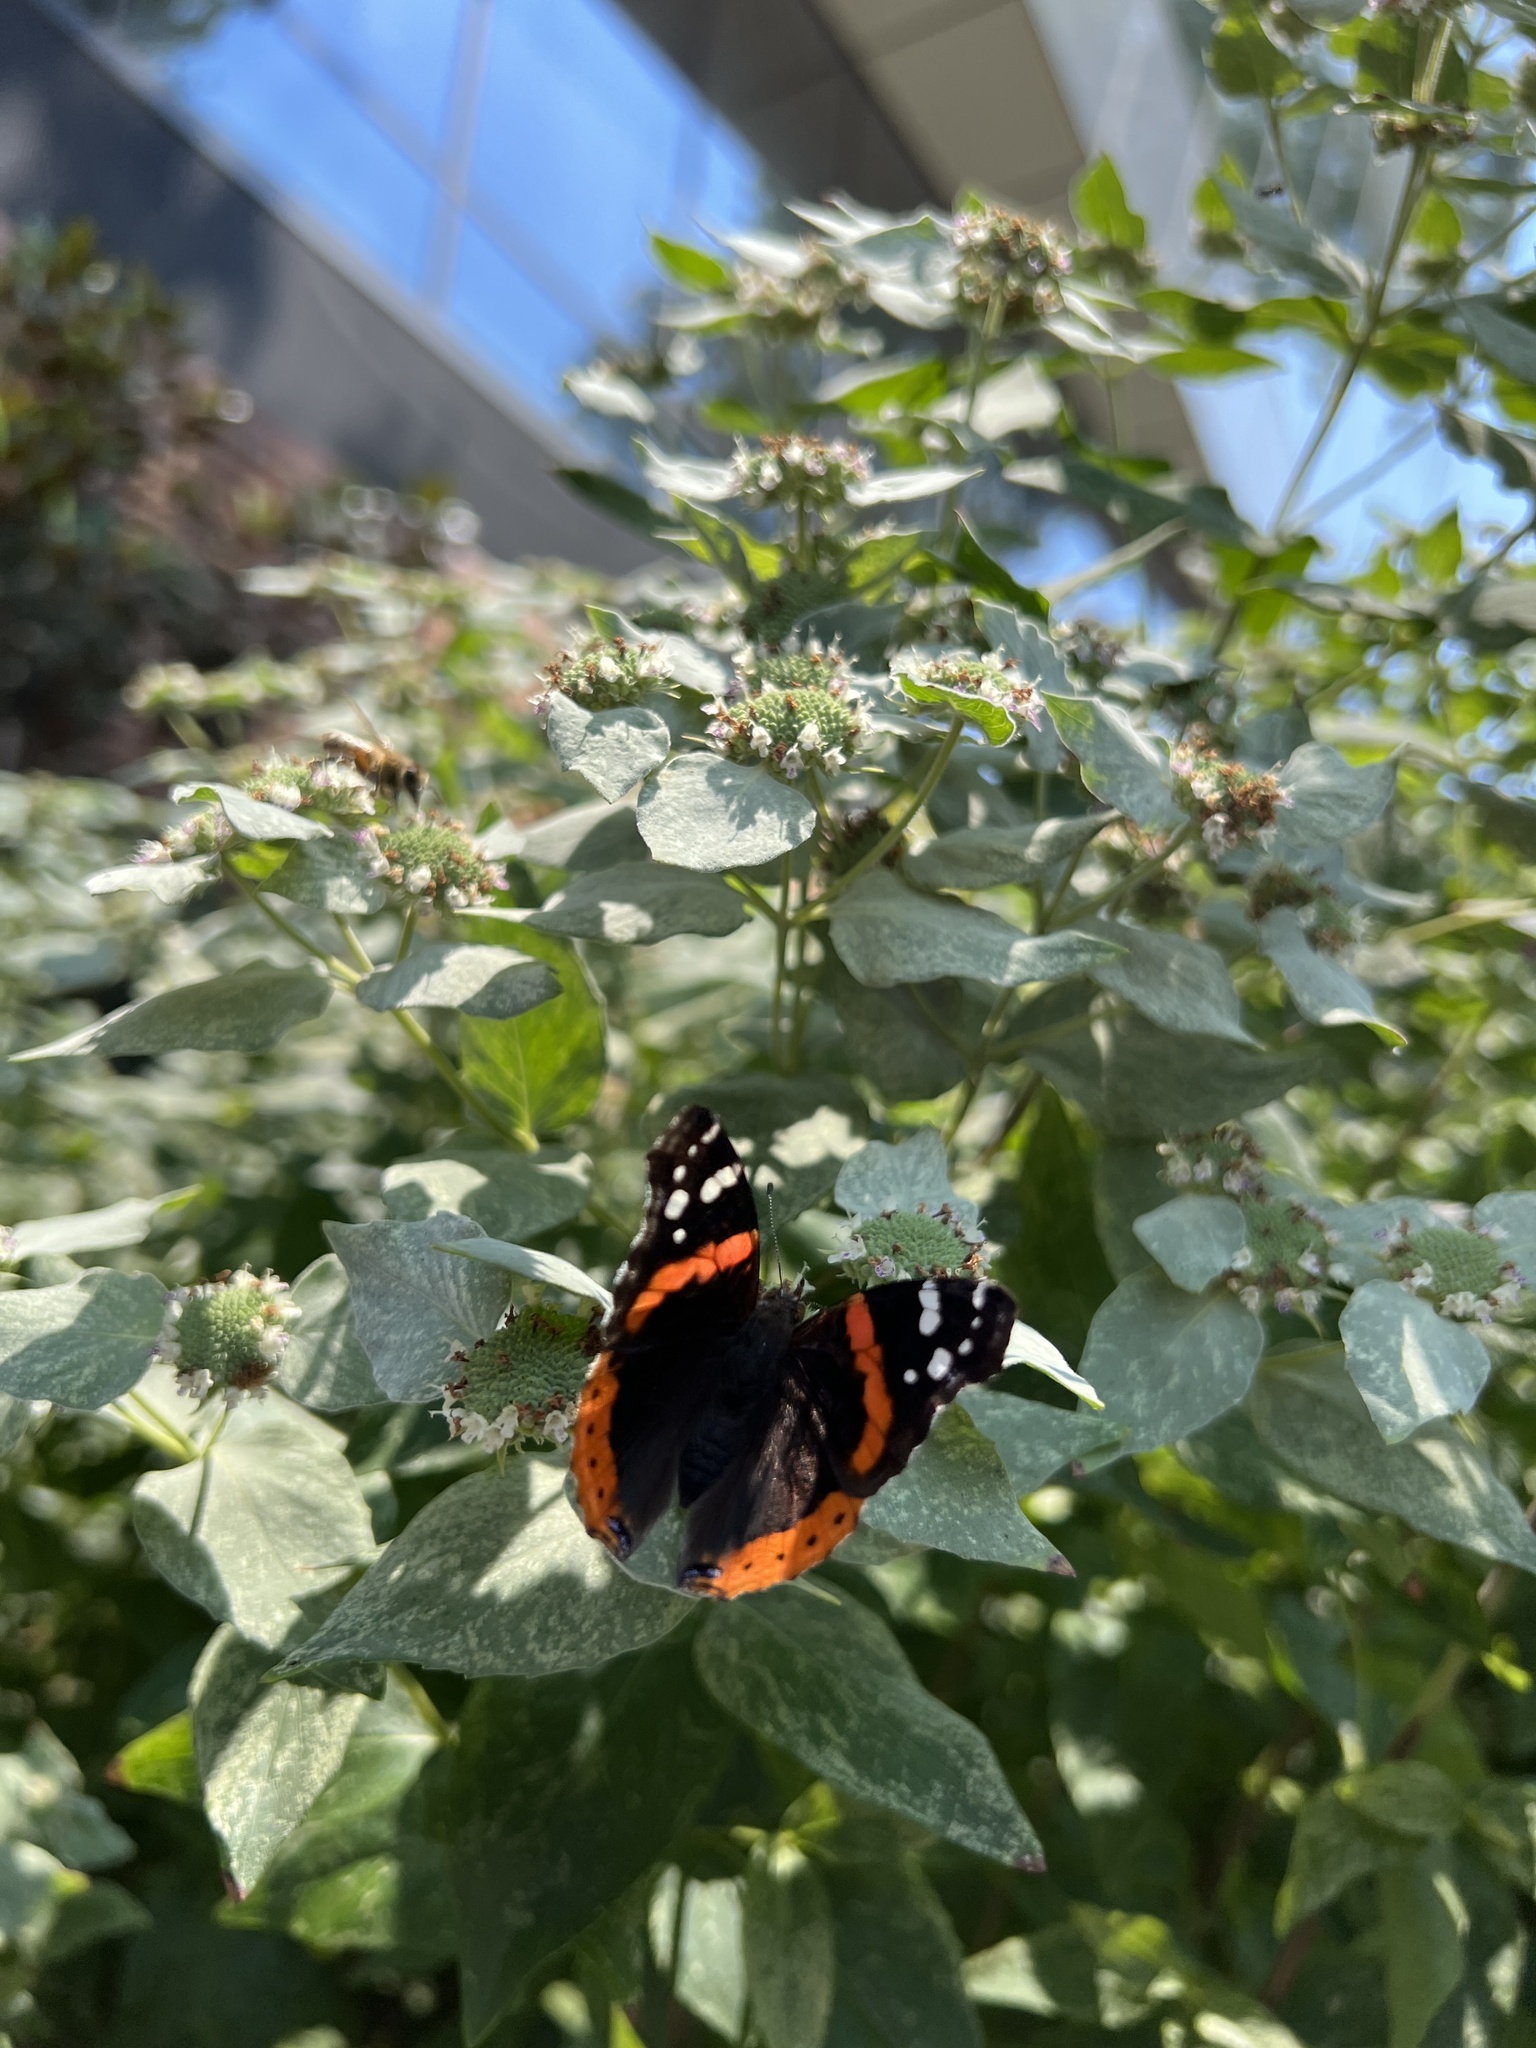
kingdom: Animalia
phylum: Arthropoda
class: Insecta
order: Lepidoptera
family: Nymphalidae
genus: Vanessa
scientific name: Vanessa atalanta
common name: Red admiral
